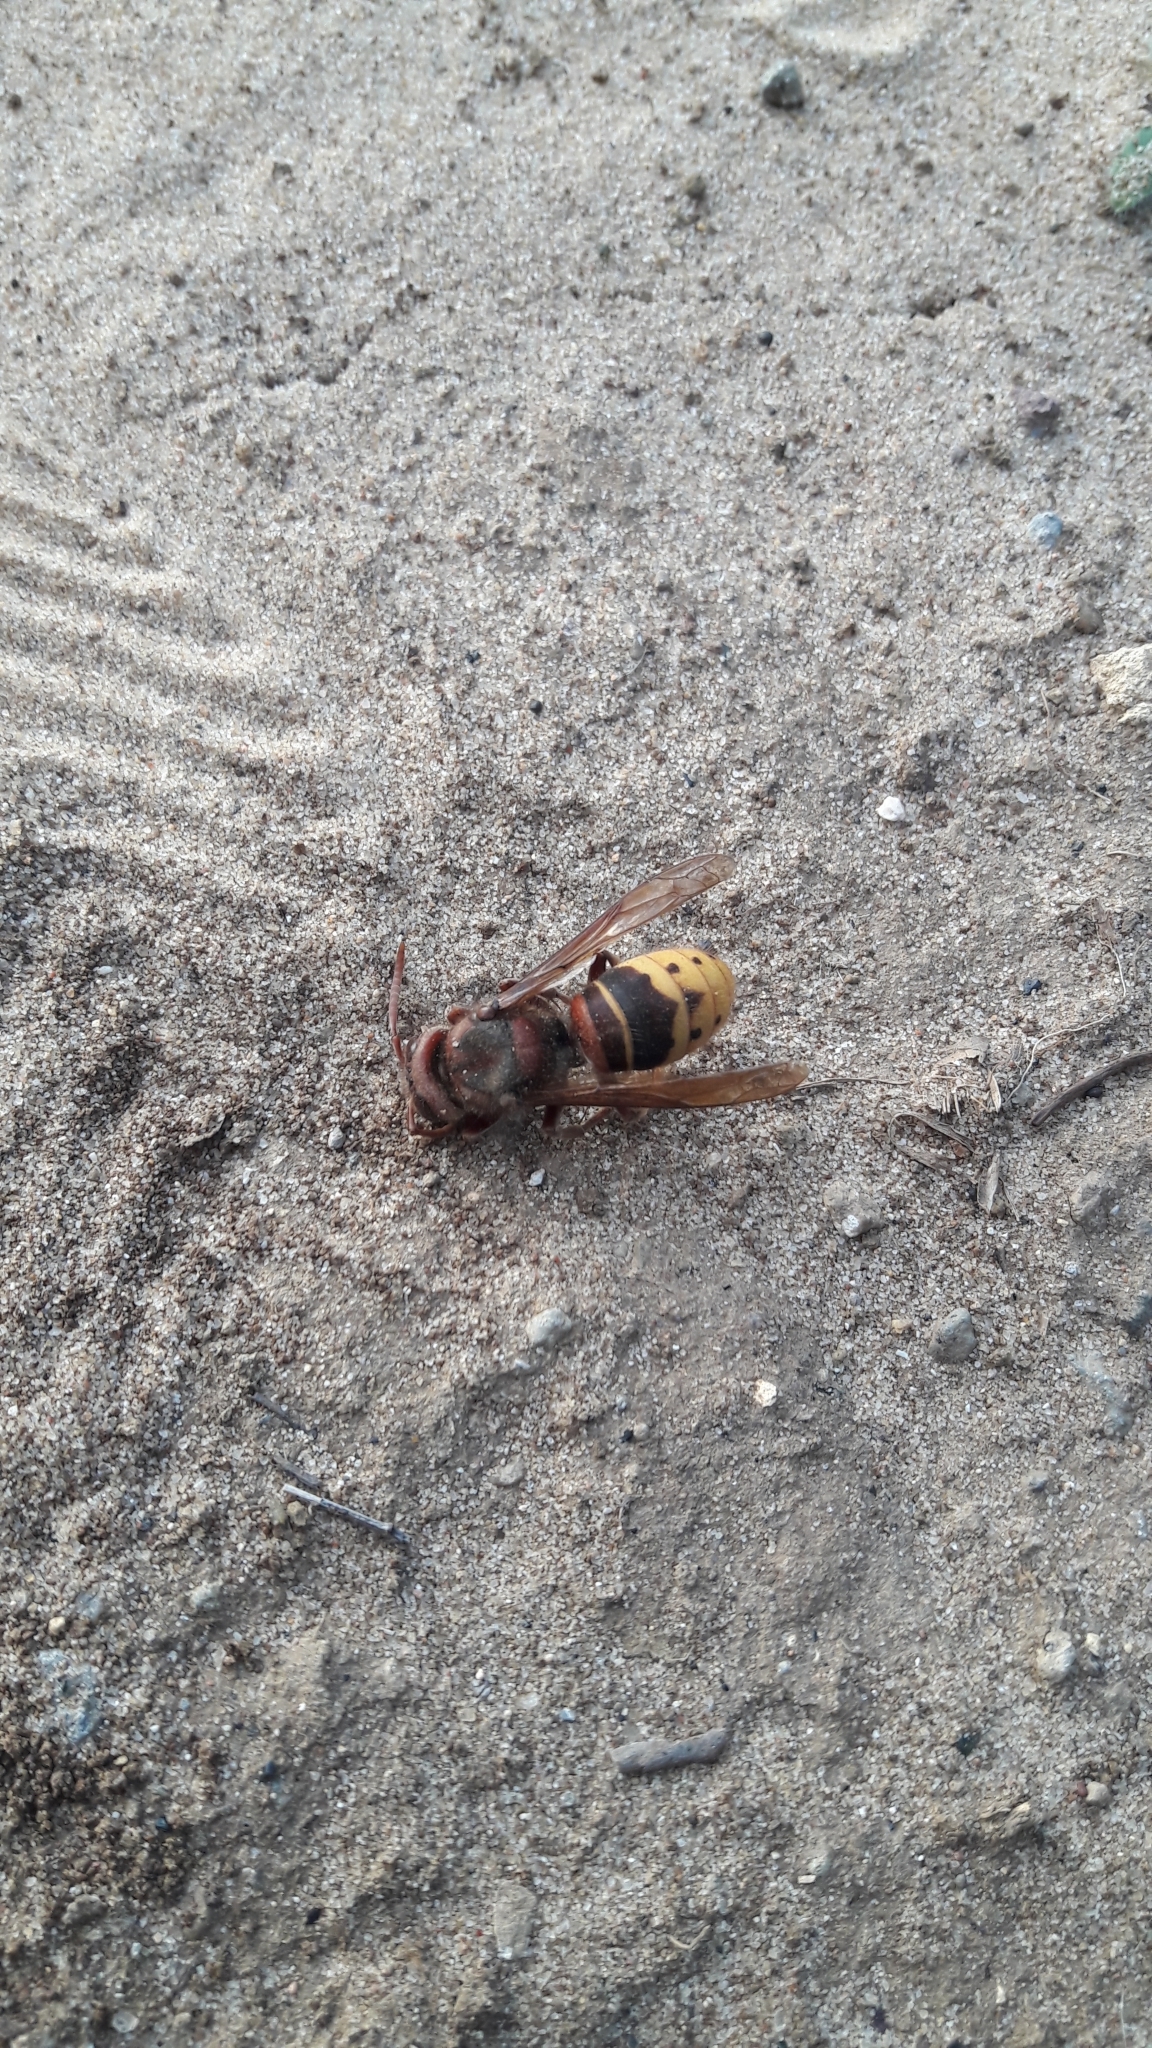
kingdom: Animalia
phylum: Arthropoda
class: Insecta
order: Hymenoptera
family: Vespidae
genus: Vespa
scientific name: Vespa crabro
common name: Hornet
